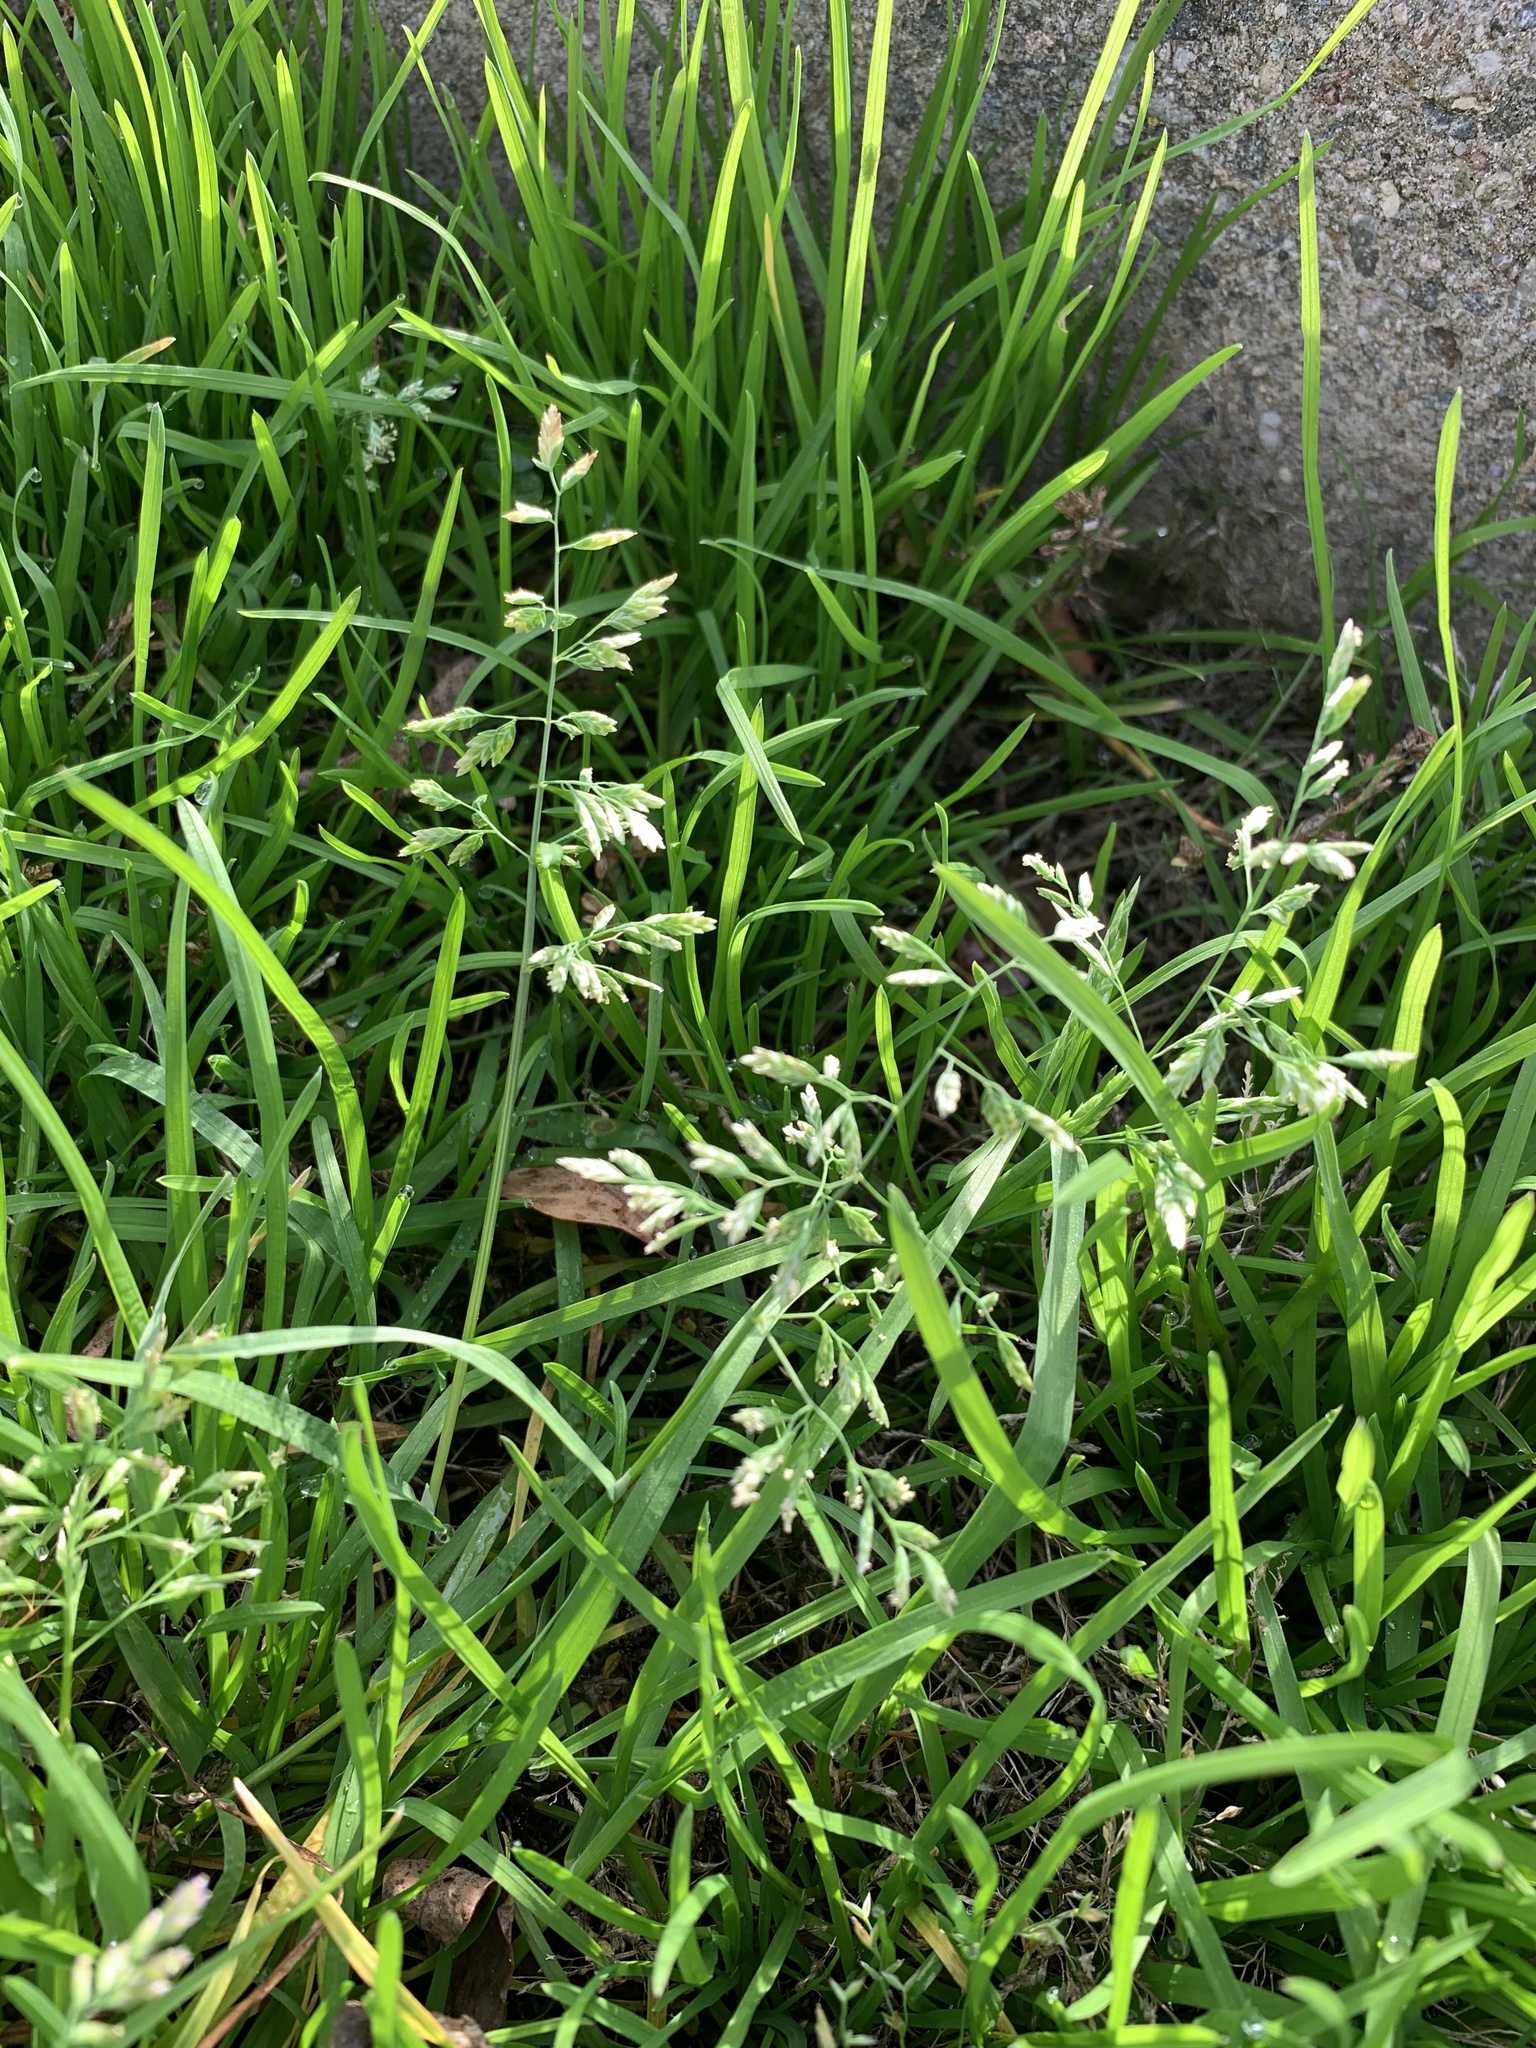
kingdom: Plantae
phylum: Tracheophyta
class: Liliopsida
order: Poales
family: Poaceae
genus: Poa
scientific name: Poa annua
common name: Annual bluegrass
